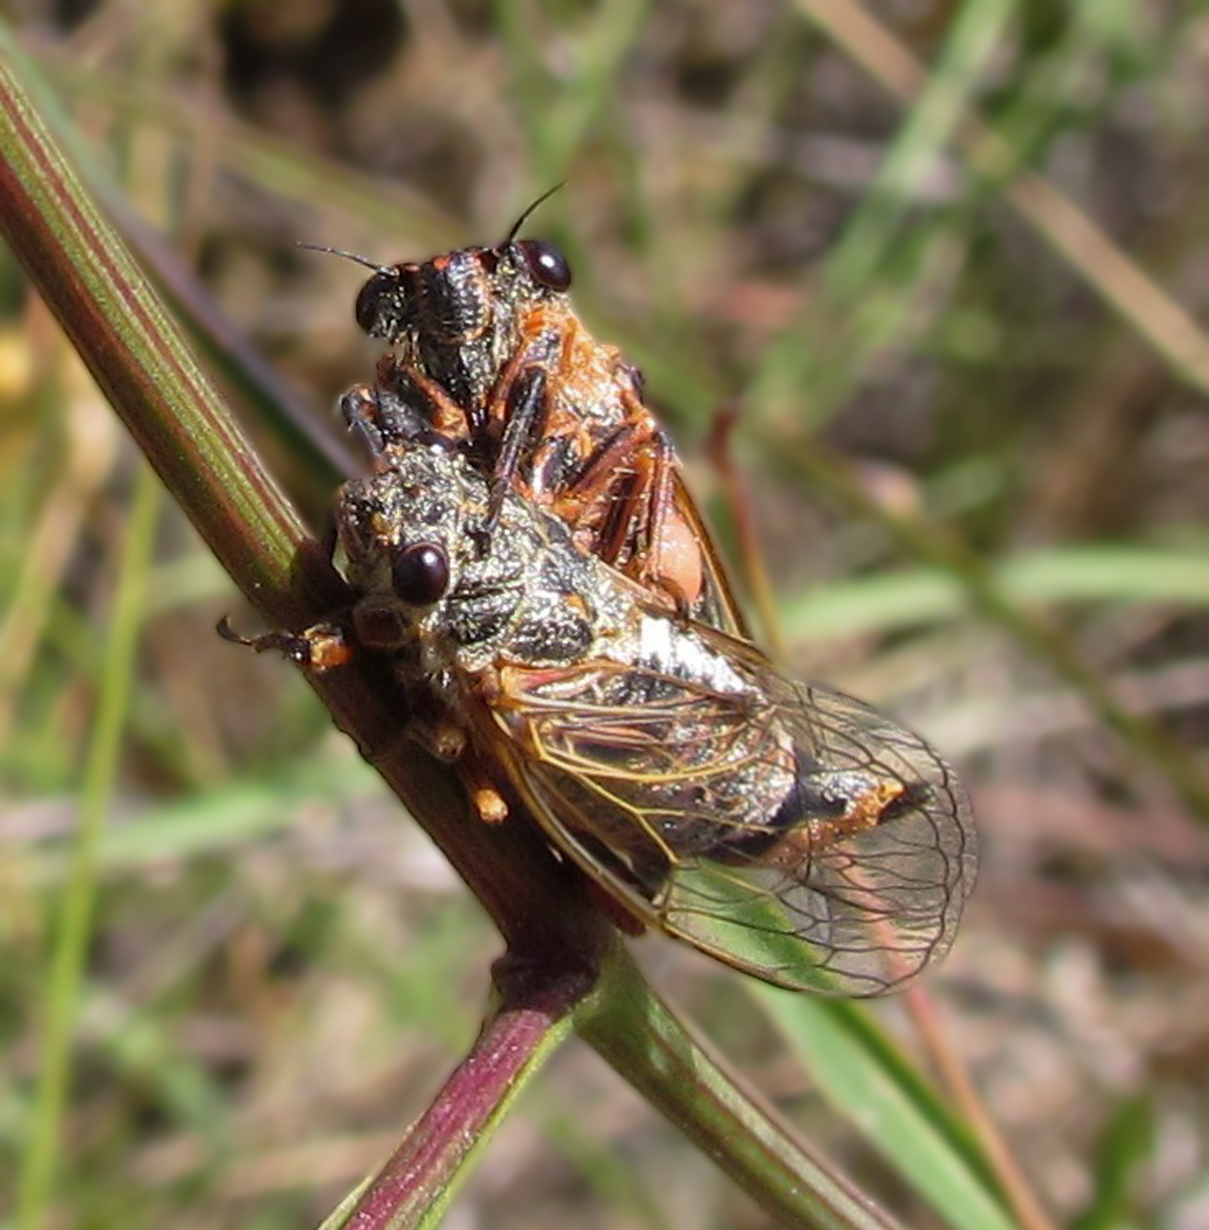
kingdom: Animalia
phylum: Arthropoda
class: Insecta
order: Hemiptera
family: Cicadidae
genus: Tympanistalna
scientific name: Tympanistalna gastrica
